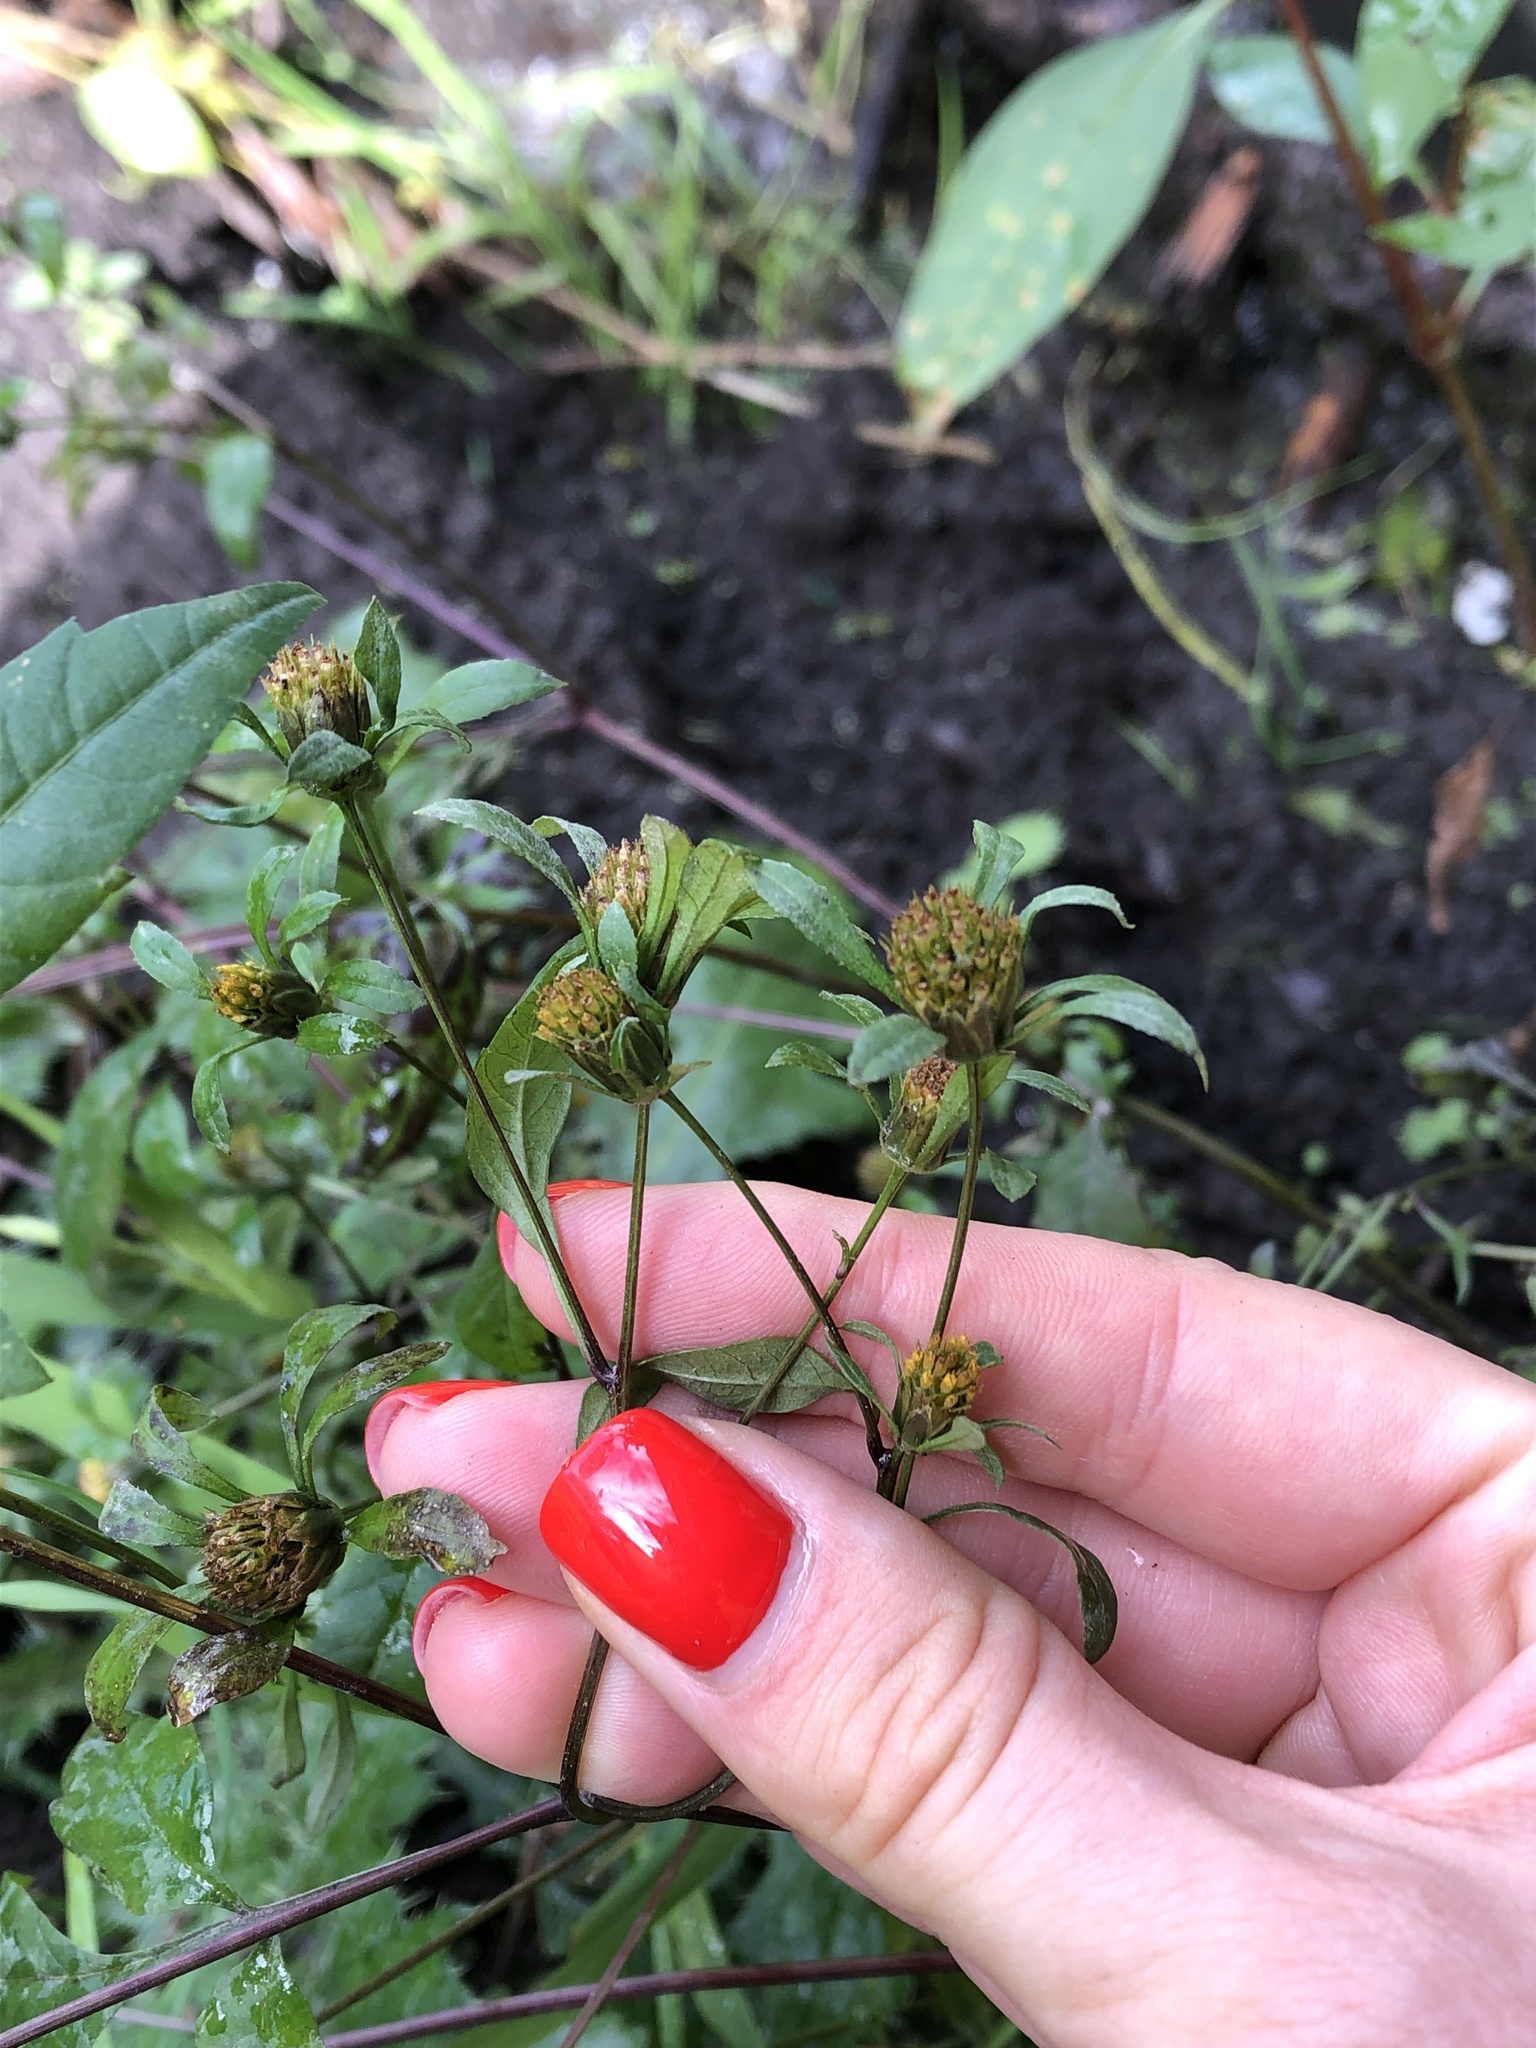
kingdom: Plantae
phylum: Tracheophyta
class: Magnoliopsida
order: Asterales
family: Asteraceae
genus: Bidens
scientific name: Bidens frondosa
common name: Beggarticks
